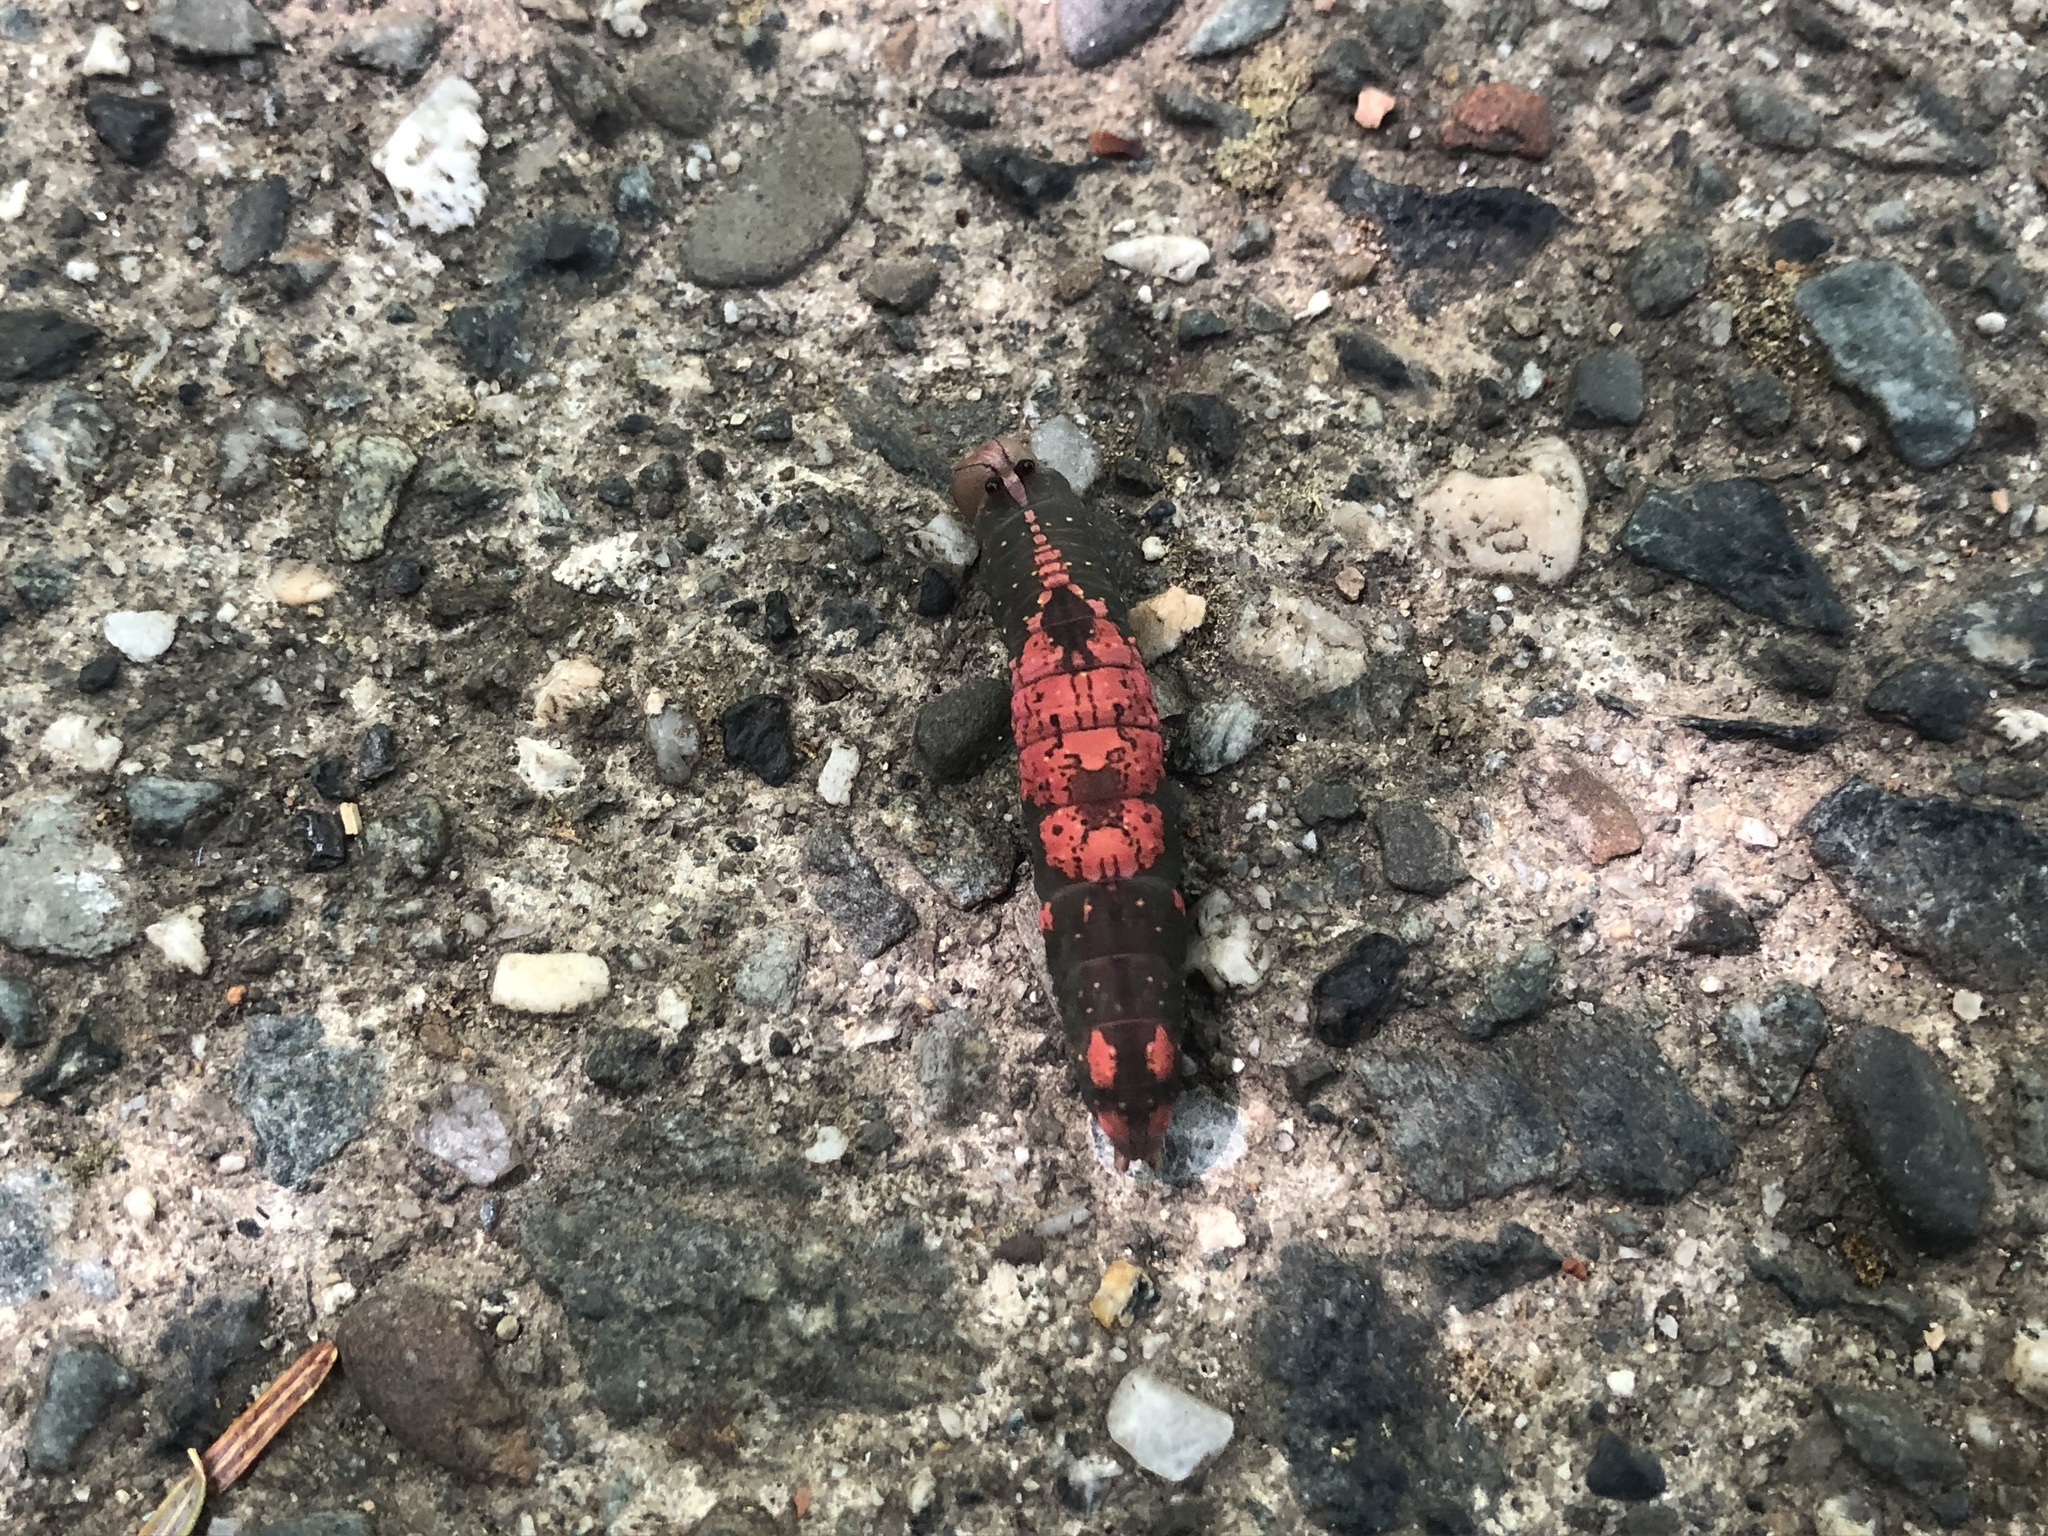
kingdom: Animalia
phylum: Arthropoda
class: Insecta
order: Lepidoptera
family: Notodontidae
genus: Heterocampa
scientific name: Heterocampa
